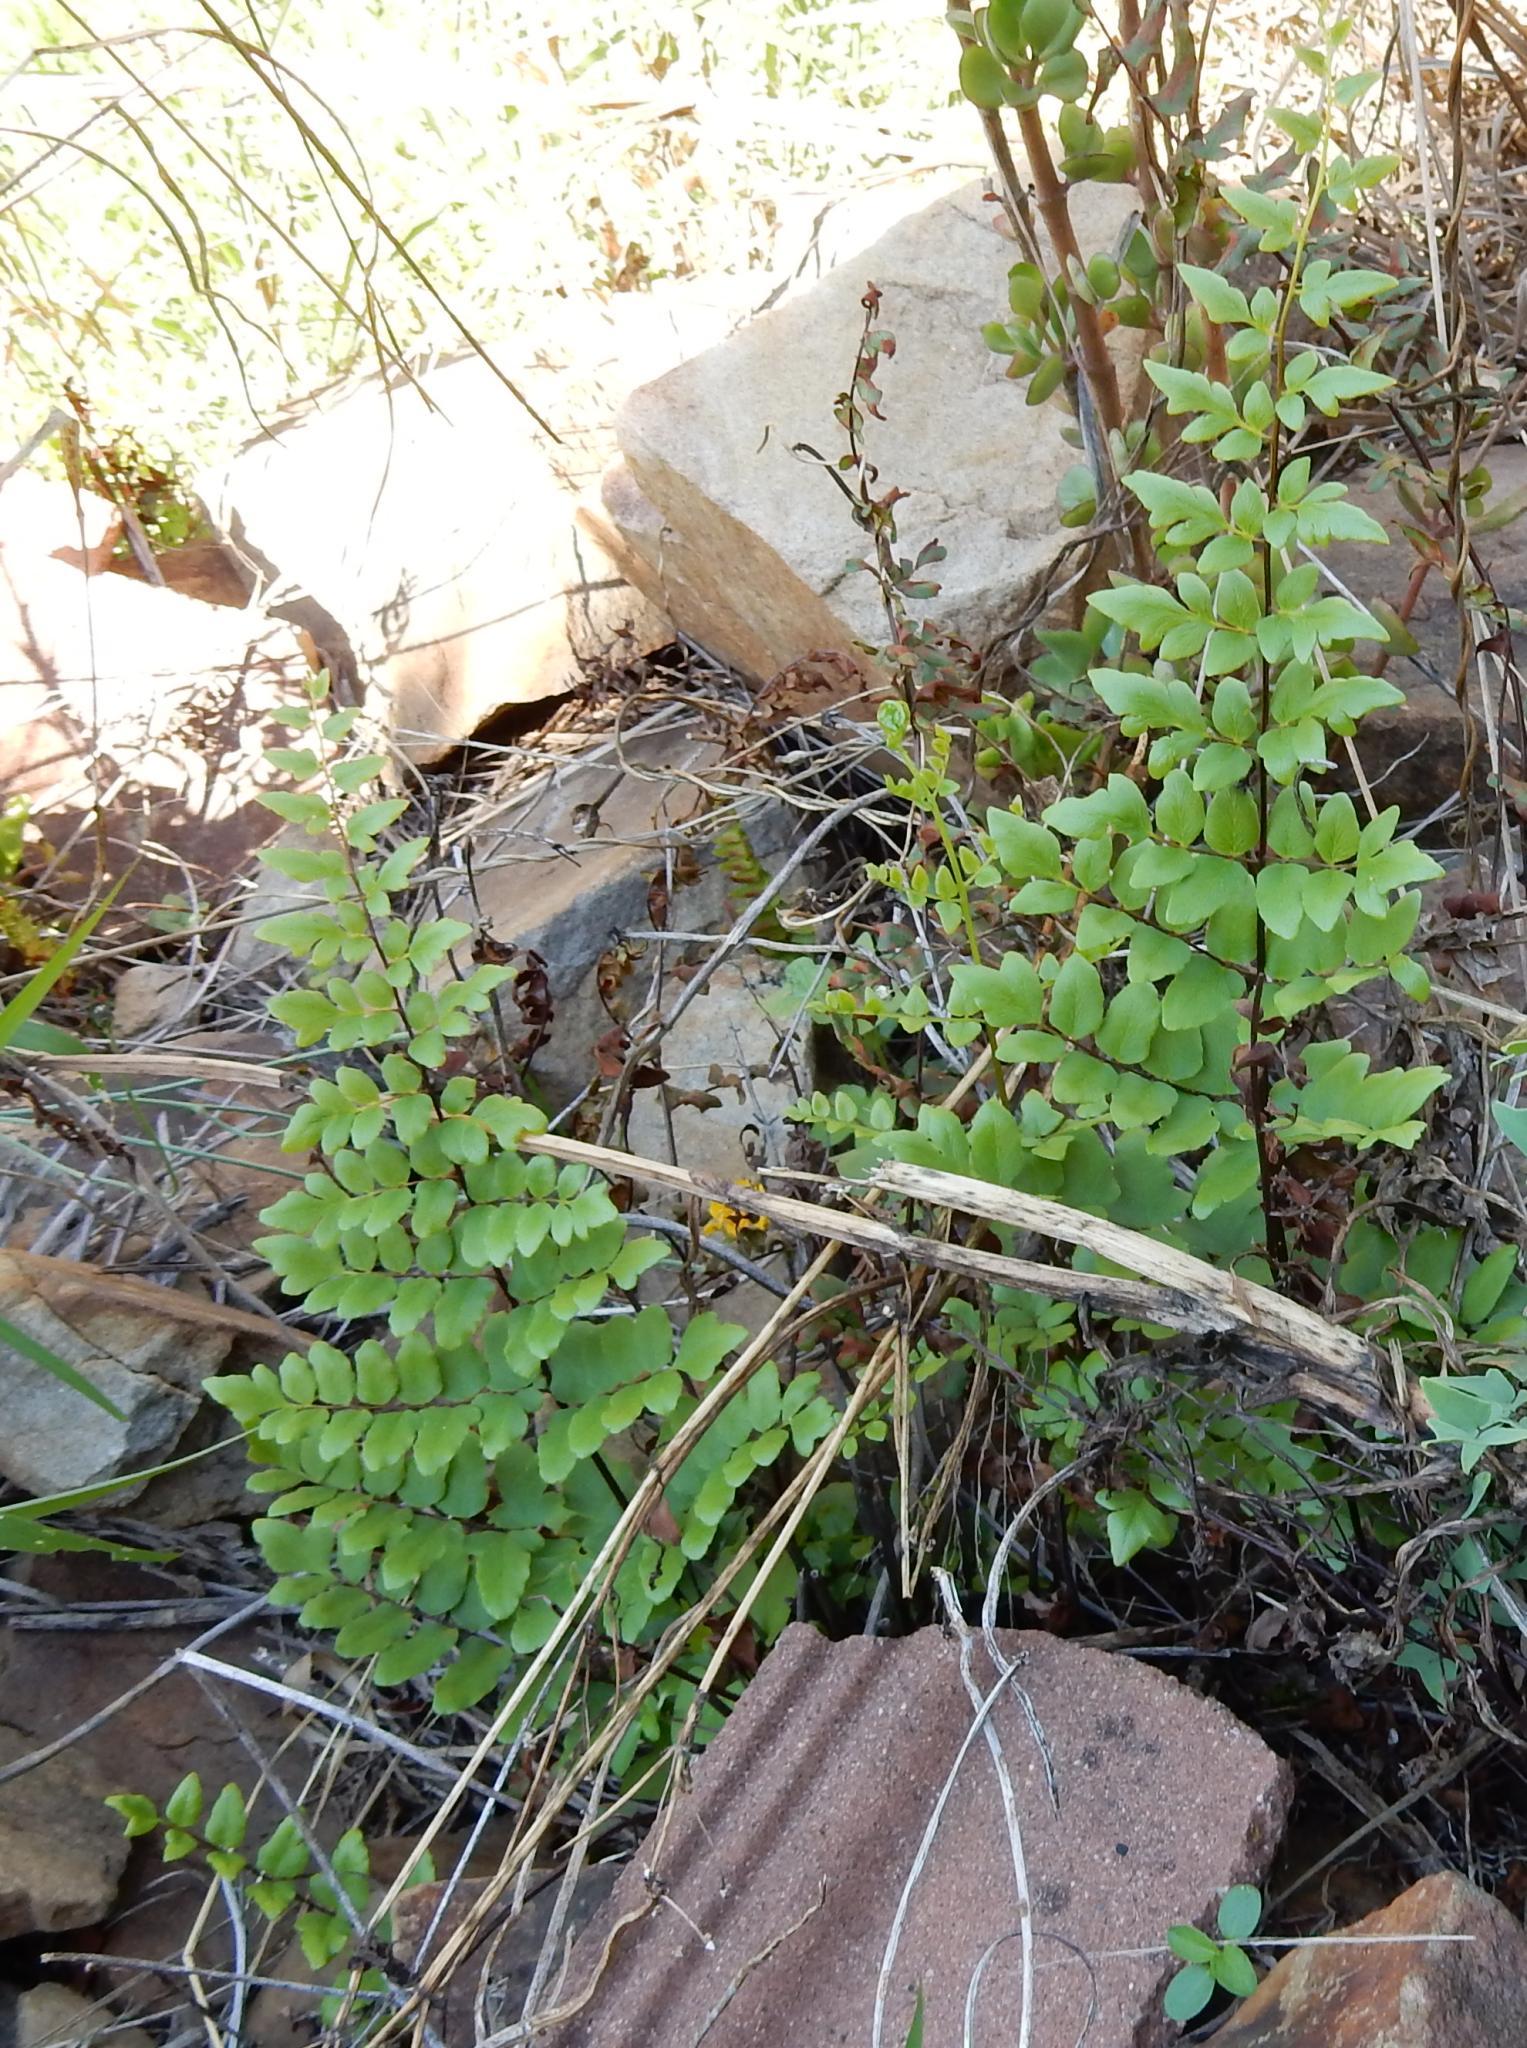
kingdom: Plantae
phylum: Tracheophyta
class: Polypodiopsida
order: Polypodiales
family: Pteridaceae
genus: Cheilanthes
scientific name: Cheilanthes viridis
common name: Green cliffbrake
